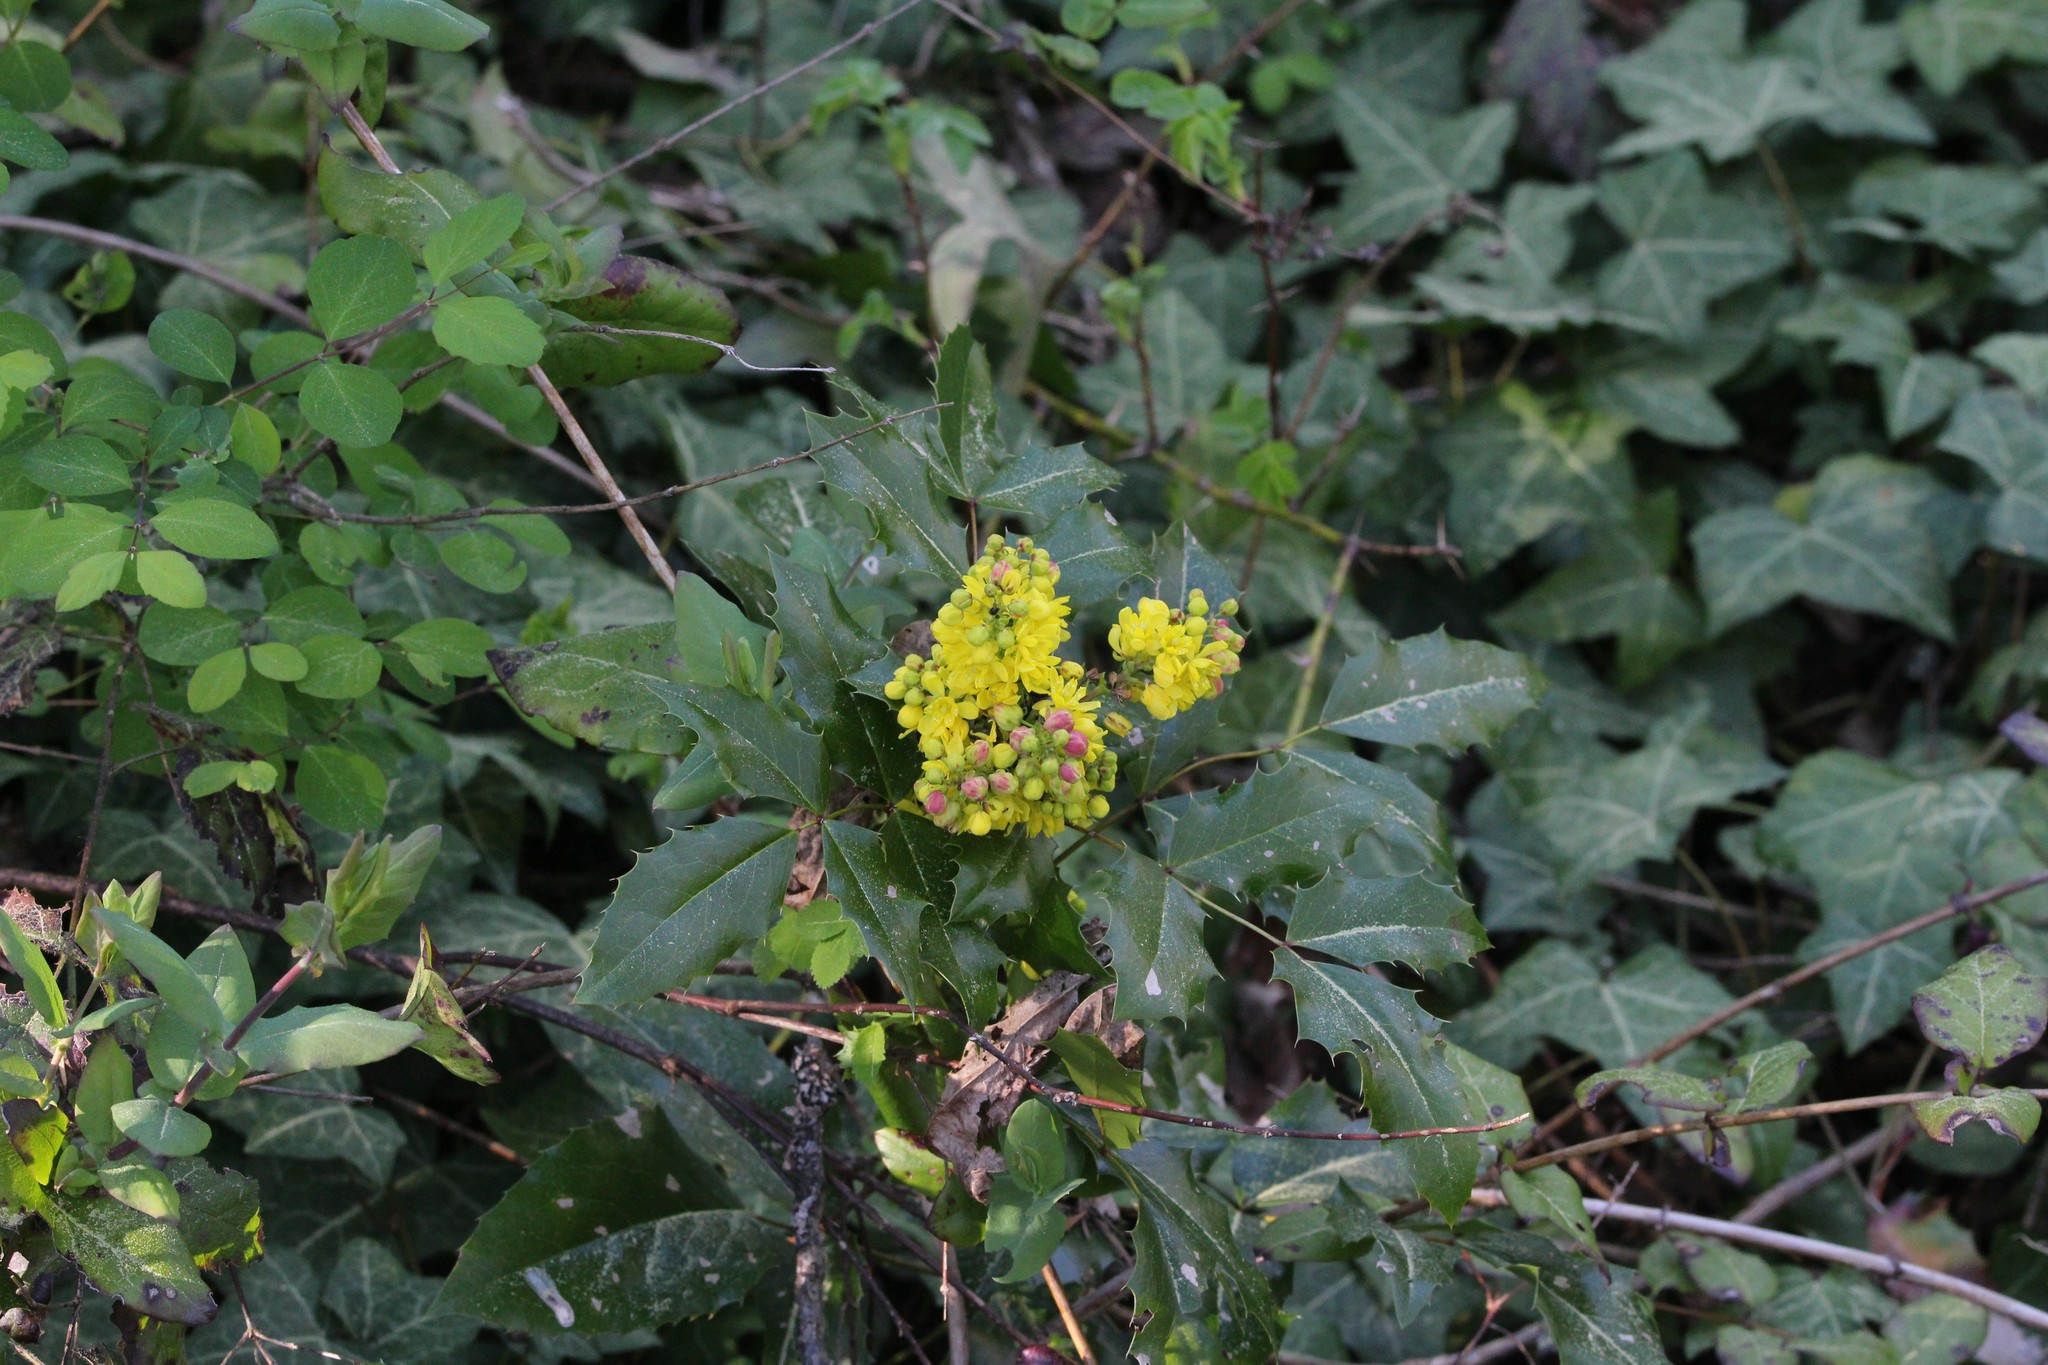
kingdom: Plantae
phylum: Tracheophyta
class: Magnoliopsida
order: Ranunculales
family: Berberidaceae
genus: Mahonia
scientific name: Mahonia aquifolium
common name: Oregon-grape
